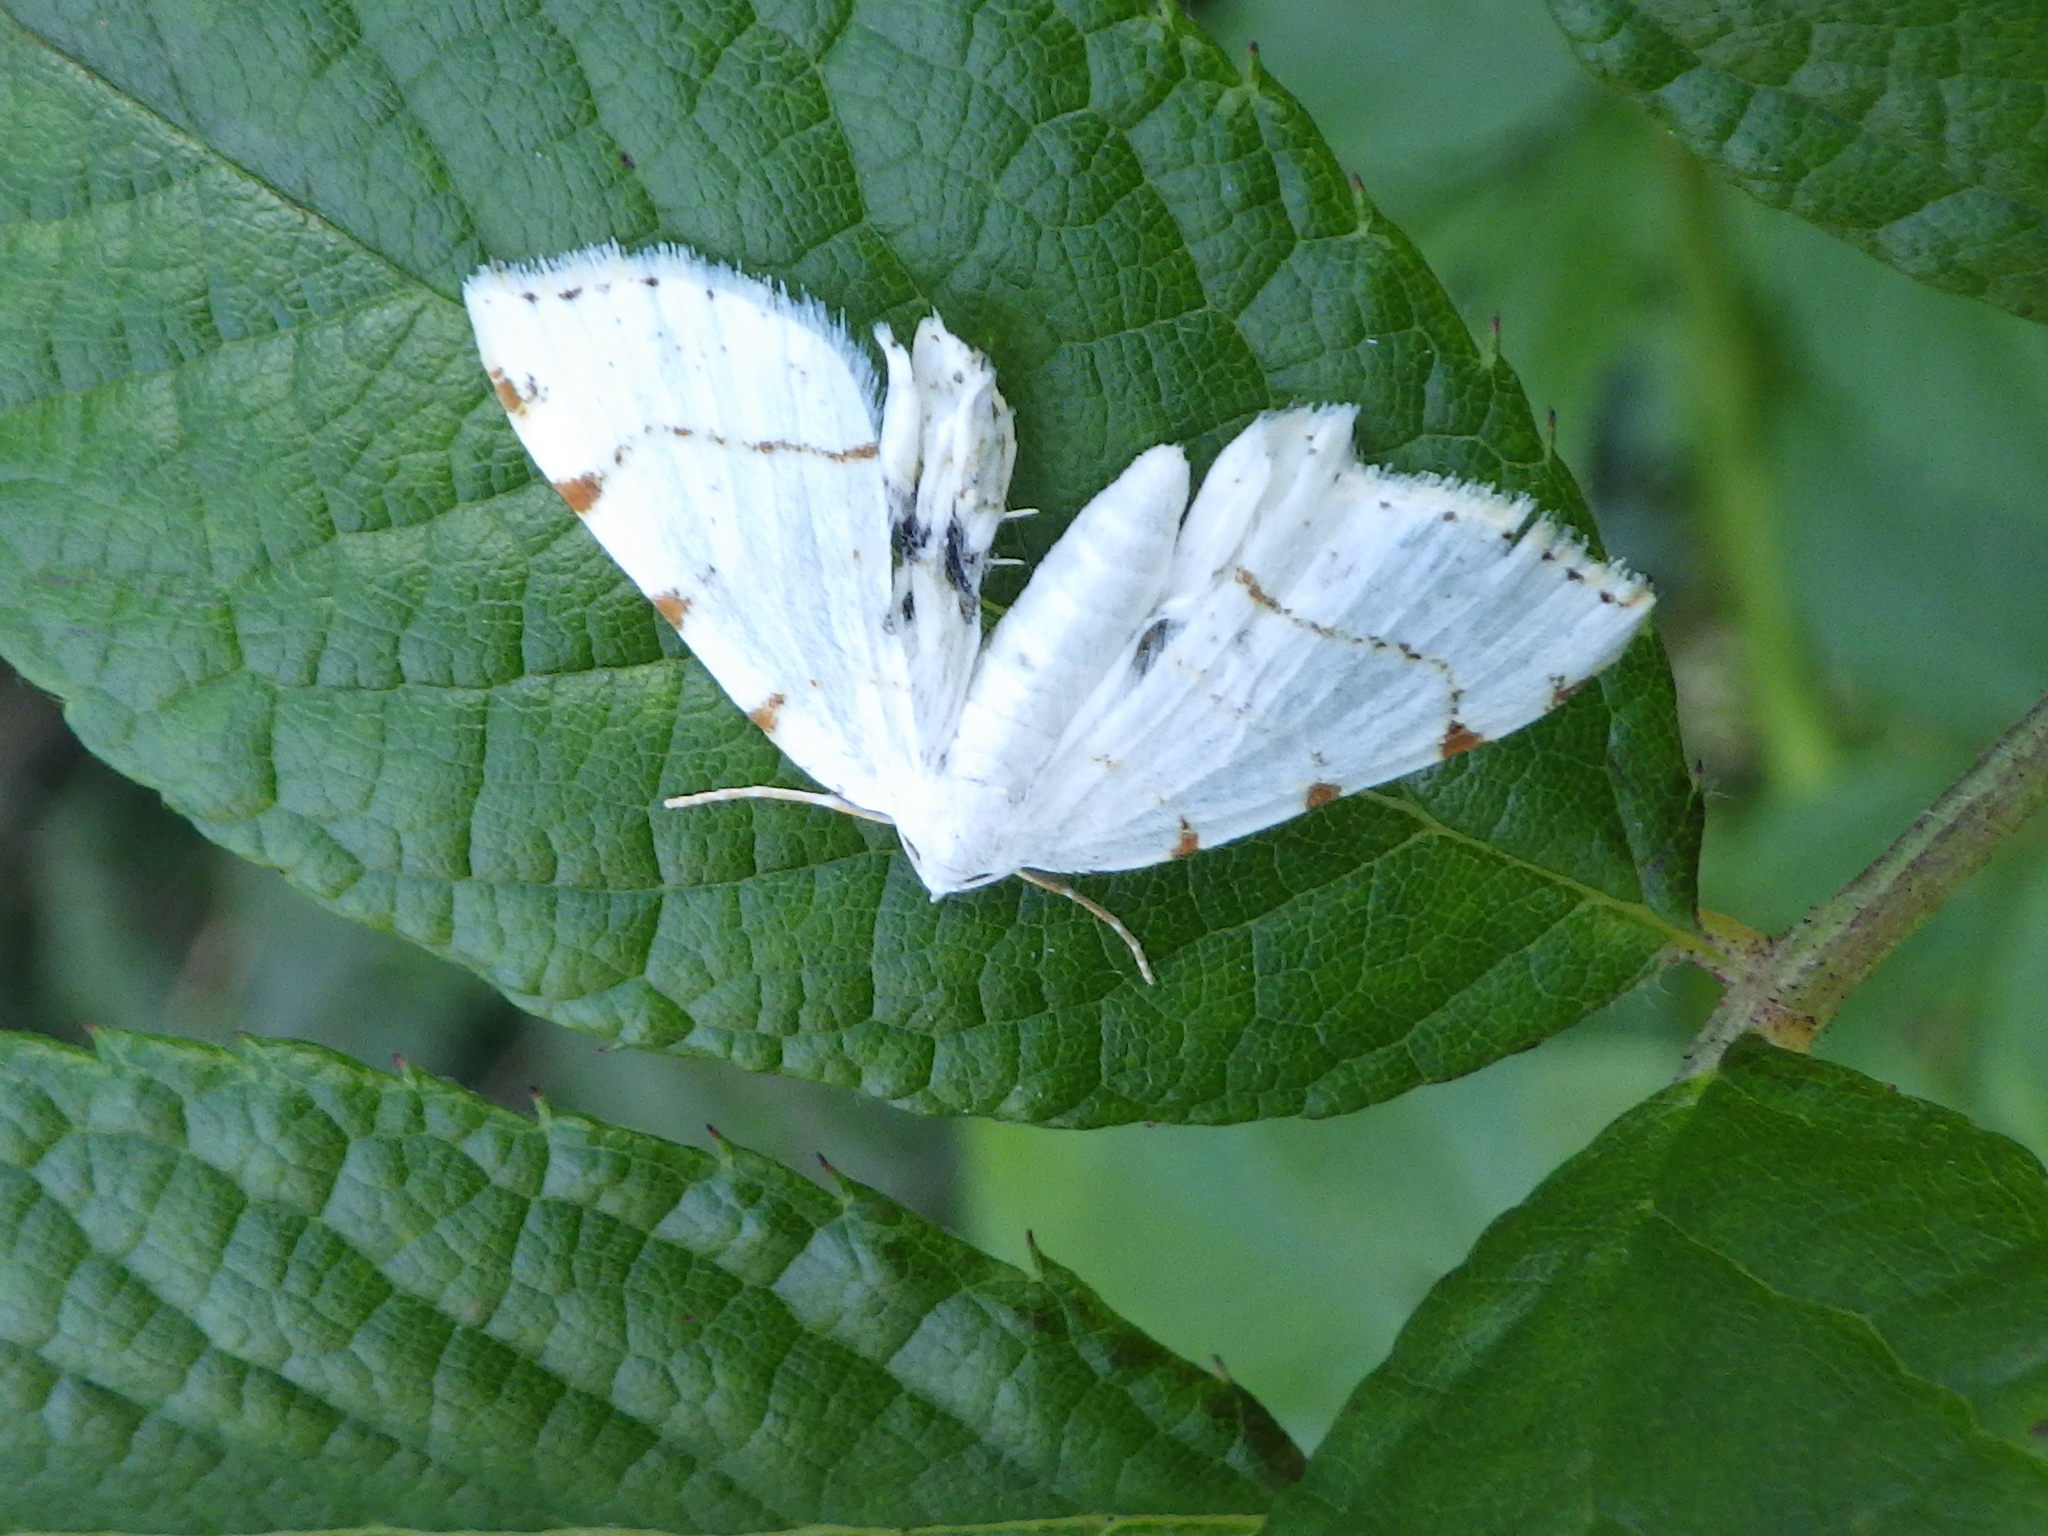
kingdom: Animalia
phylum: Arthropoda
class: Insecta
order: Lepidoptera
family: Geometridae
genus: Macaria
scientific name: Macaria pustularia
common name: Lesser maple spanworm moth
